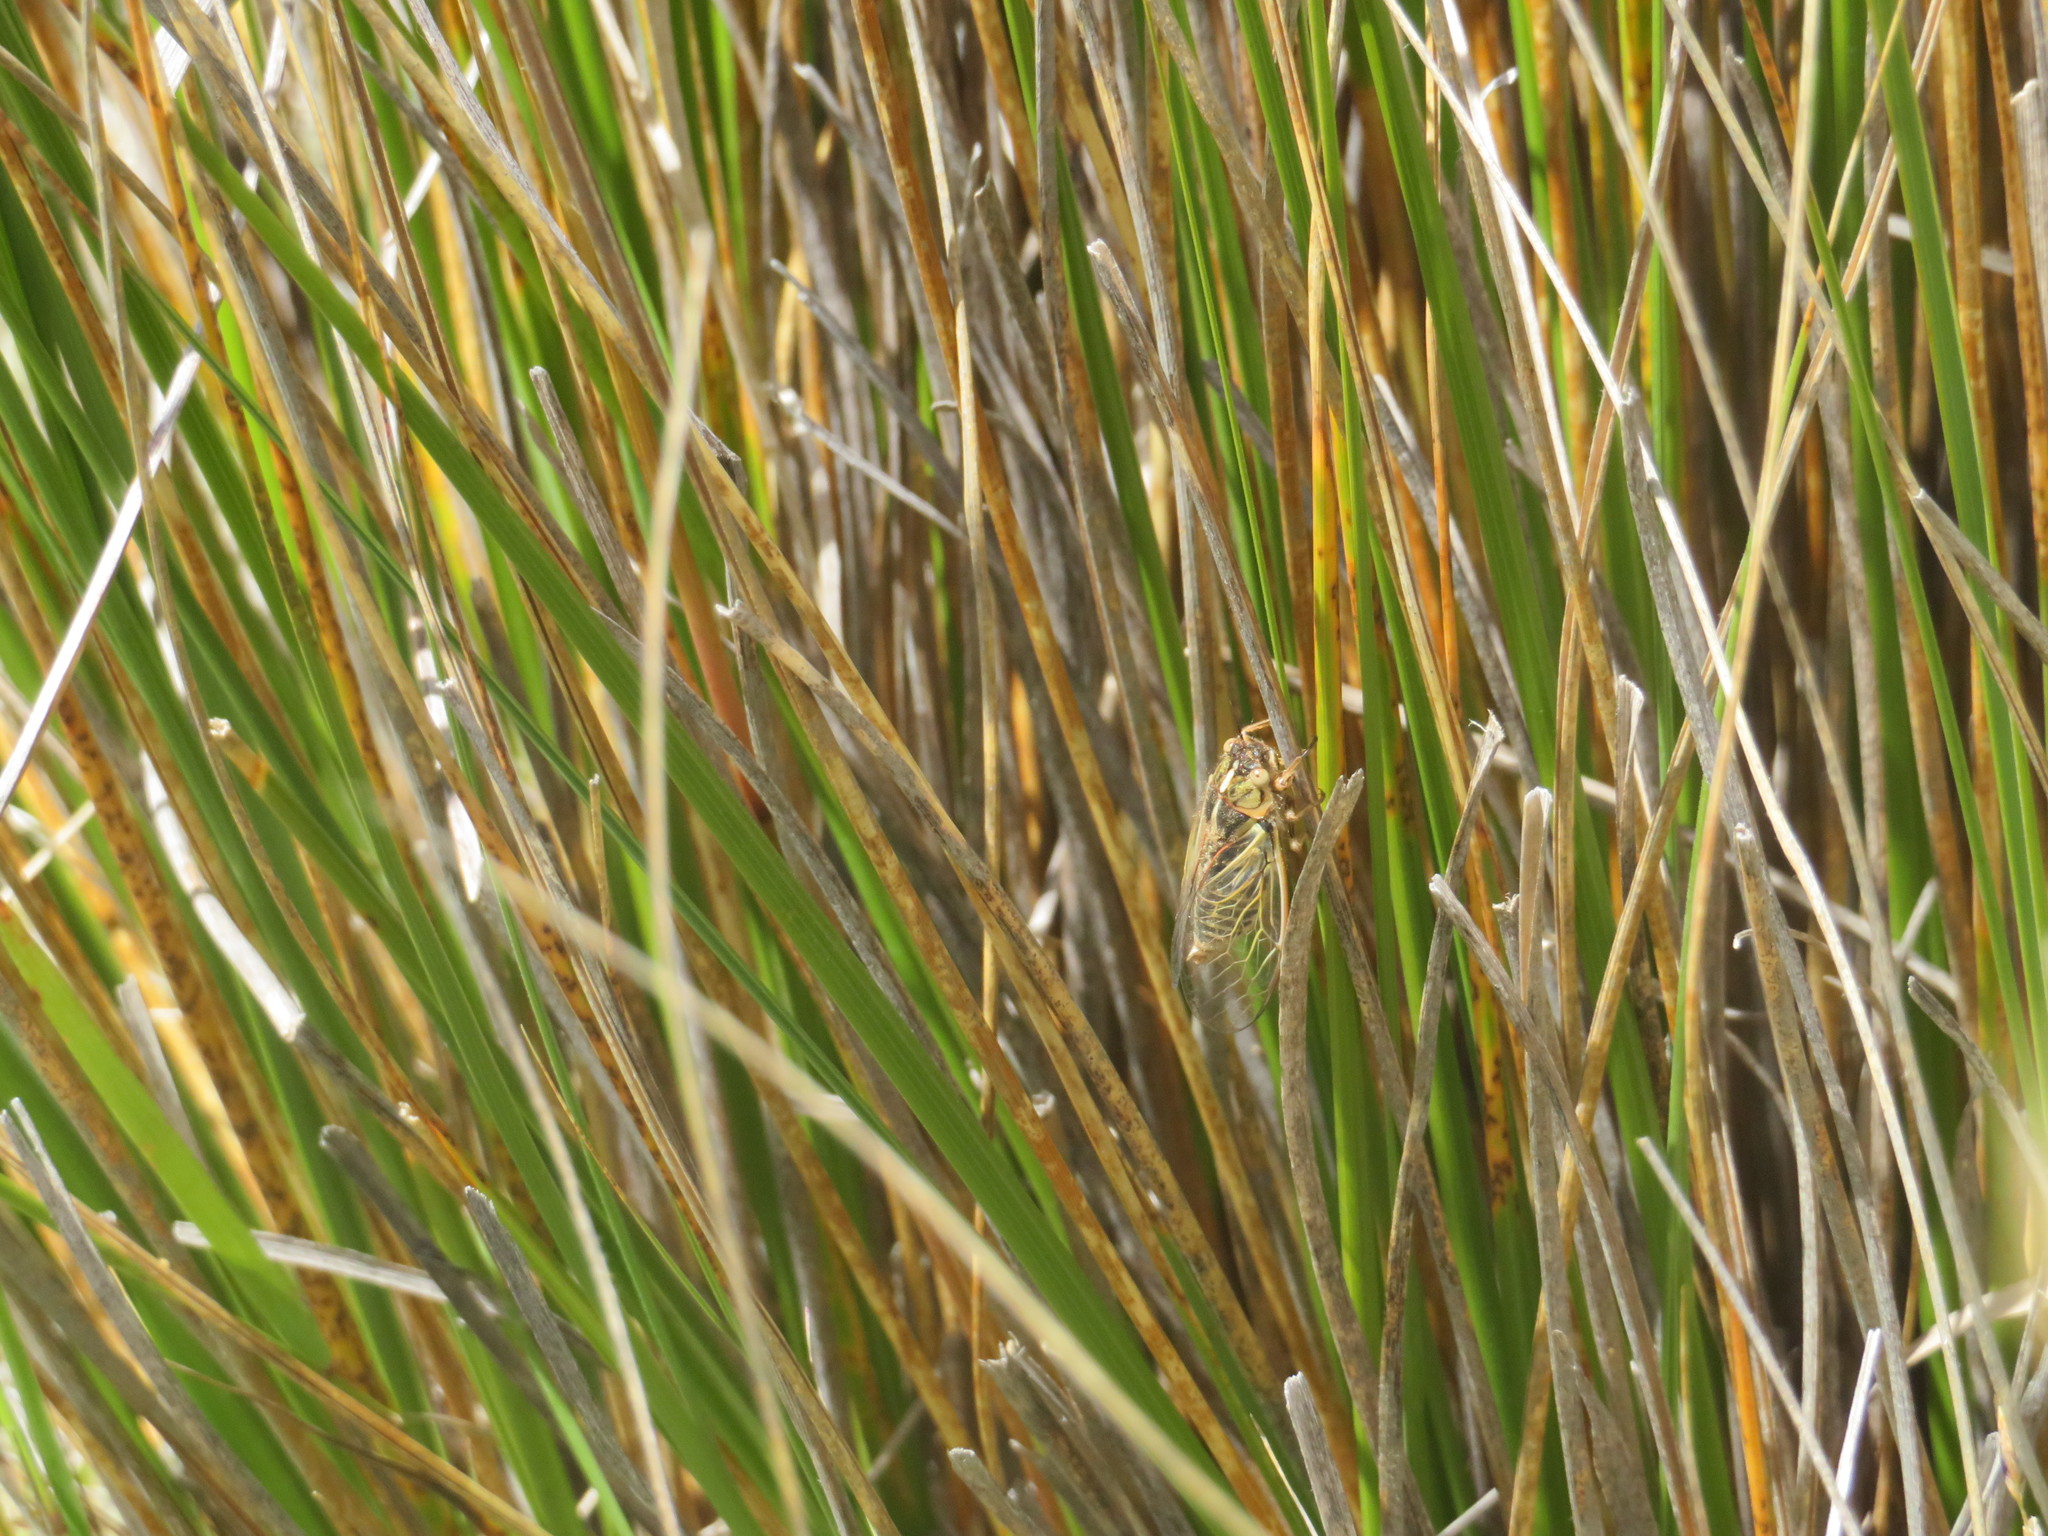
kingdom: Animalia
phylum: Arthropoda
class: Insecta
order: Hemiptera
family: Cicadidae
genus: Kikihia
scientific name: Kikihia angusta
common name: Tussock cicada
